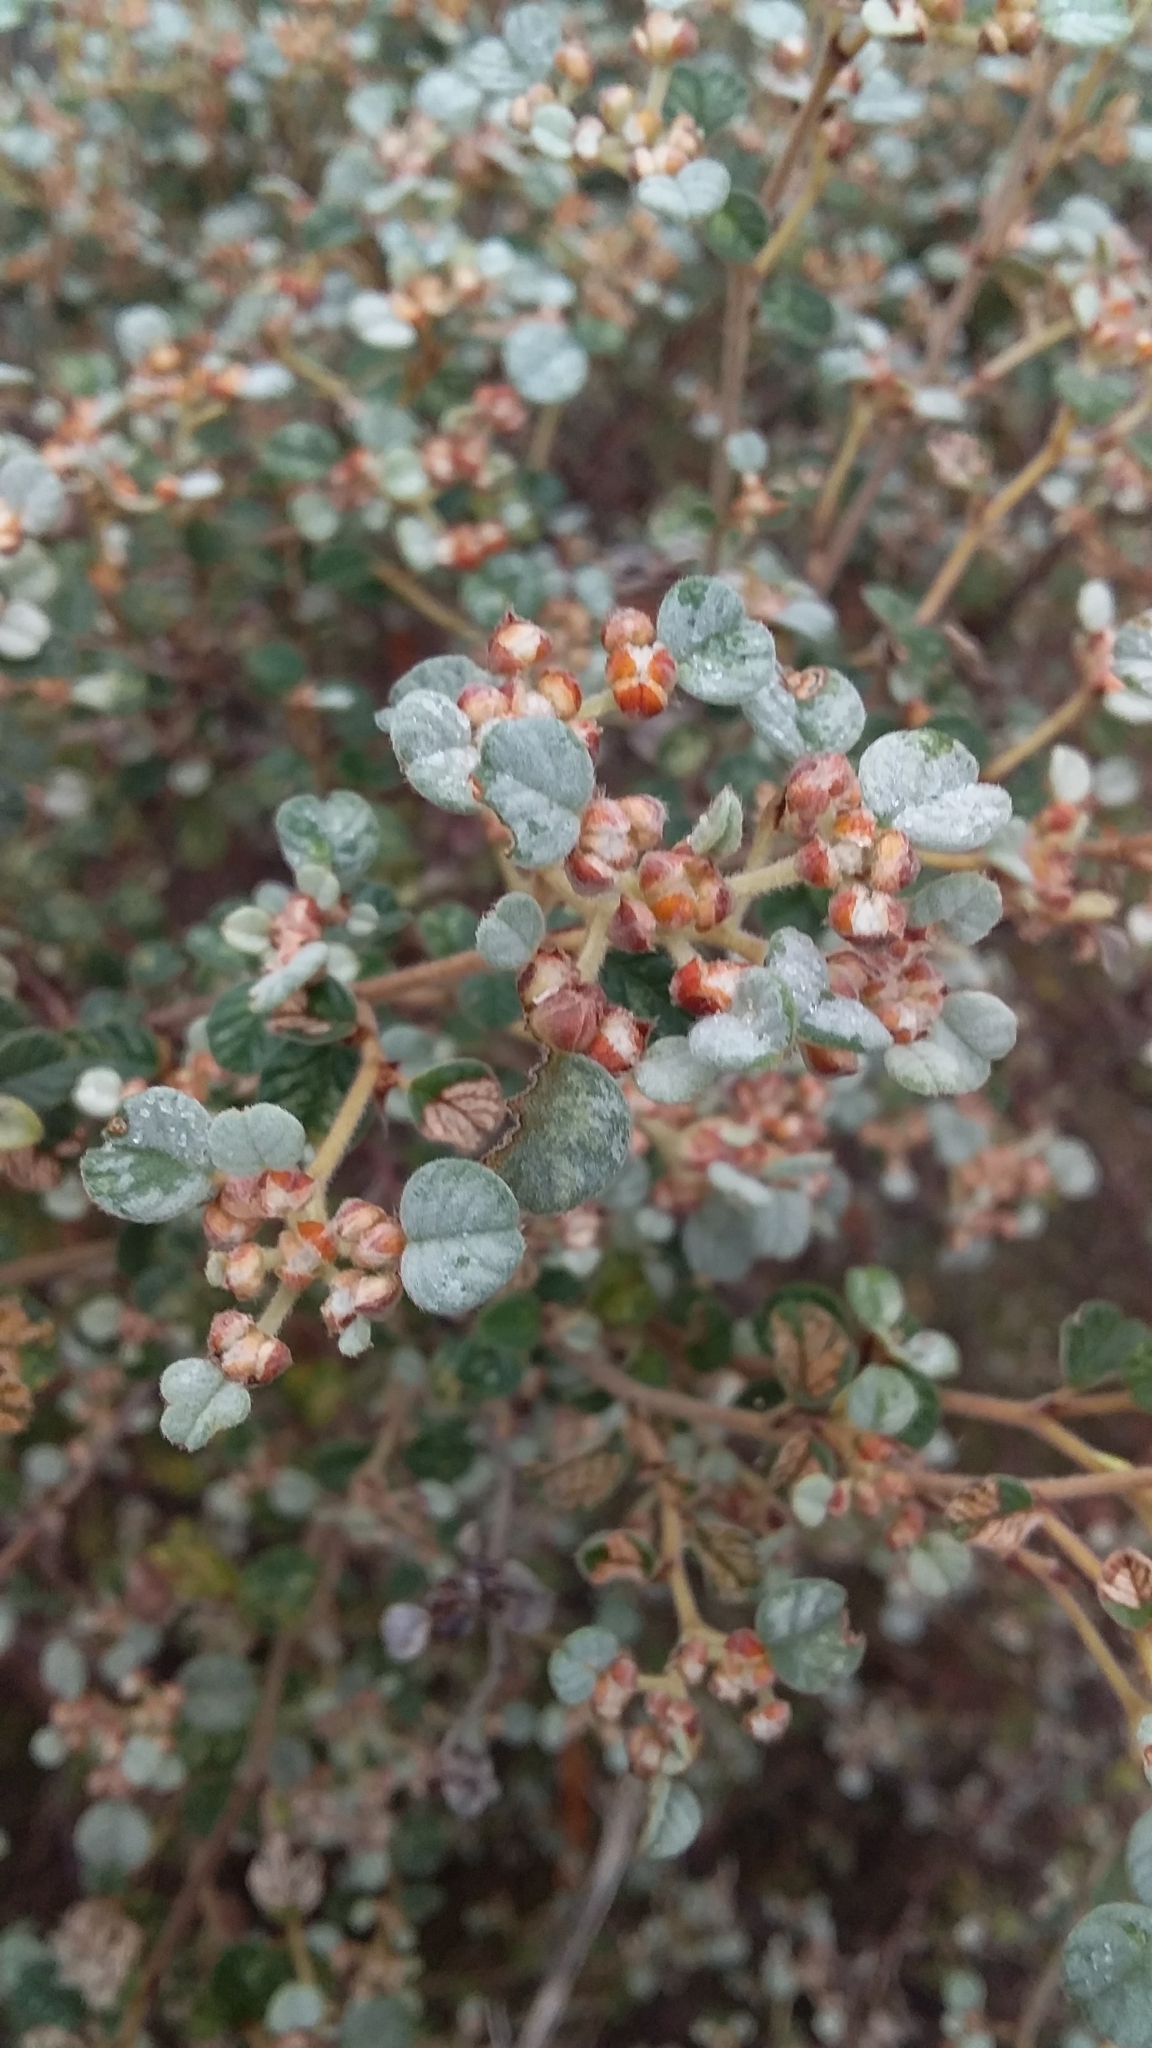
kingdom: Plantae
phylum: Tracheophyta
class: Magnoliopsida
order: Rosales
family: Rhamnaceae
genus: Spyridium
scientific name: Spyridium parvifolium
